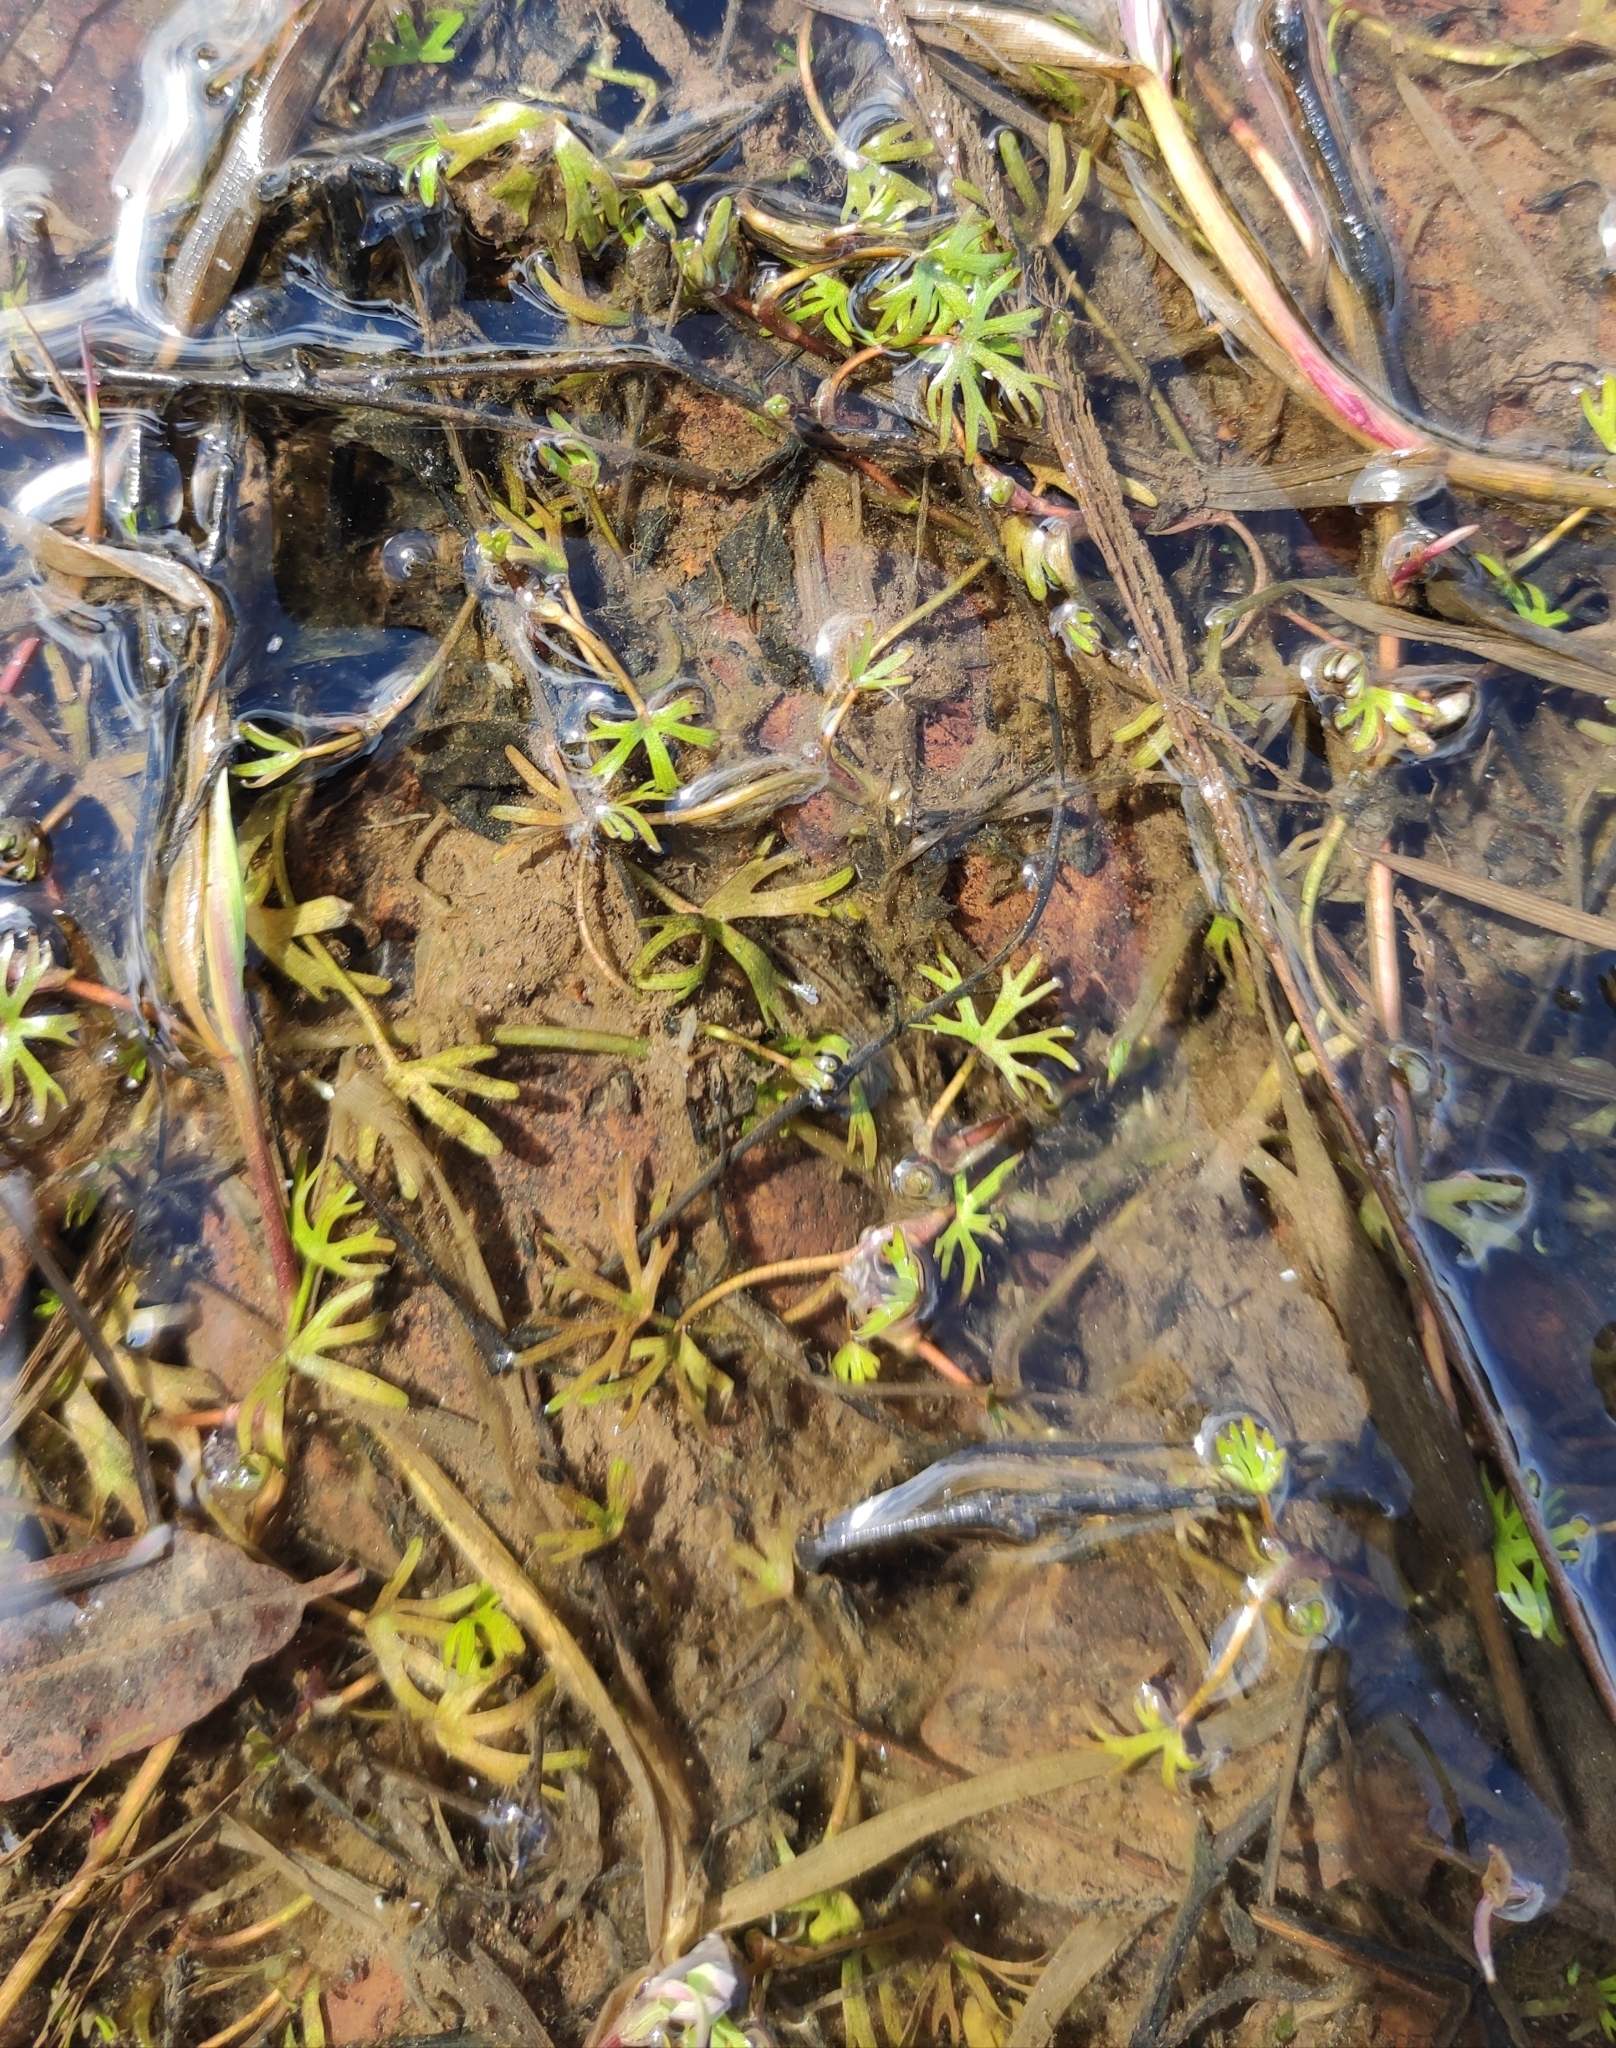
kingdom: Plantae
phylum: Tracheophyta
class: Magnoliopsida
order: Ranunculales
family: Ranunculaceae
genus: Ranunculus
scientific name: Ranunculus gmelinii
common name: Gmelin's buttercup
